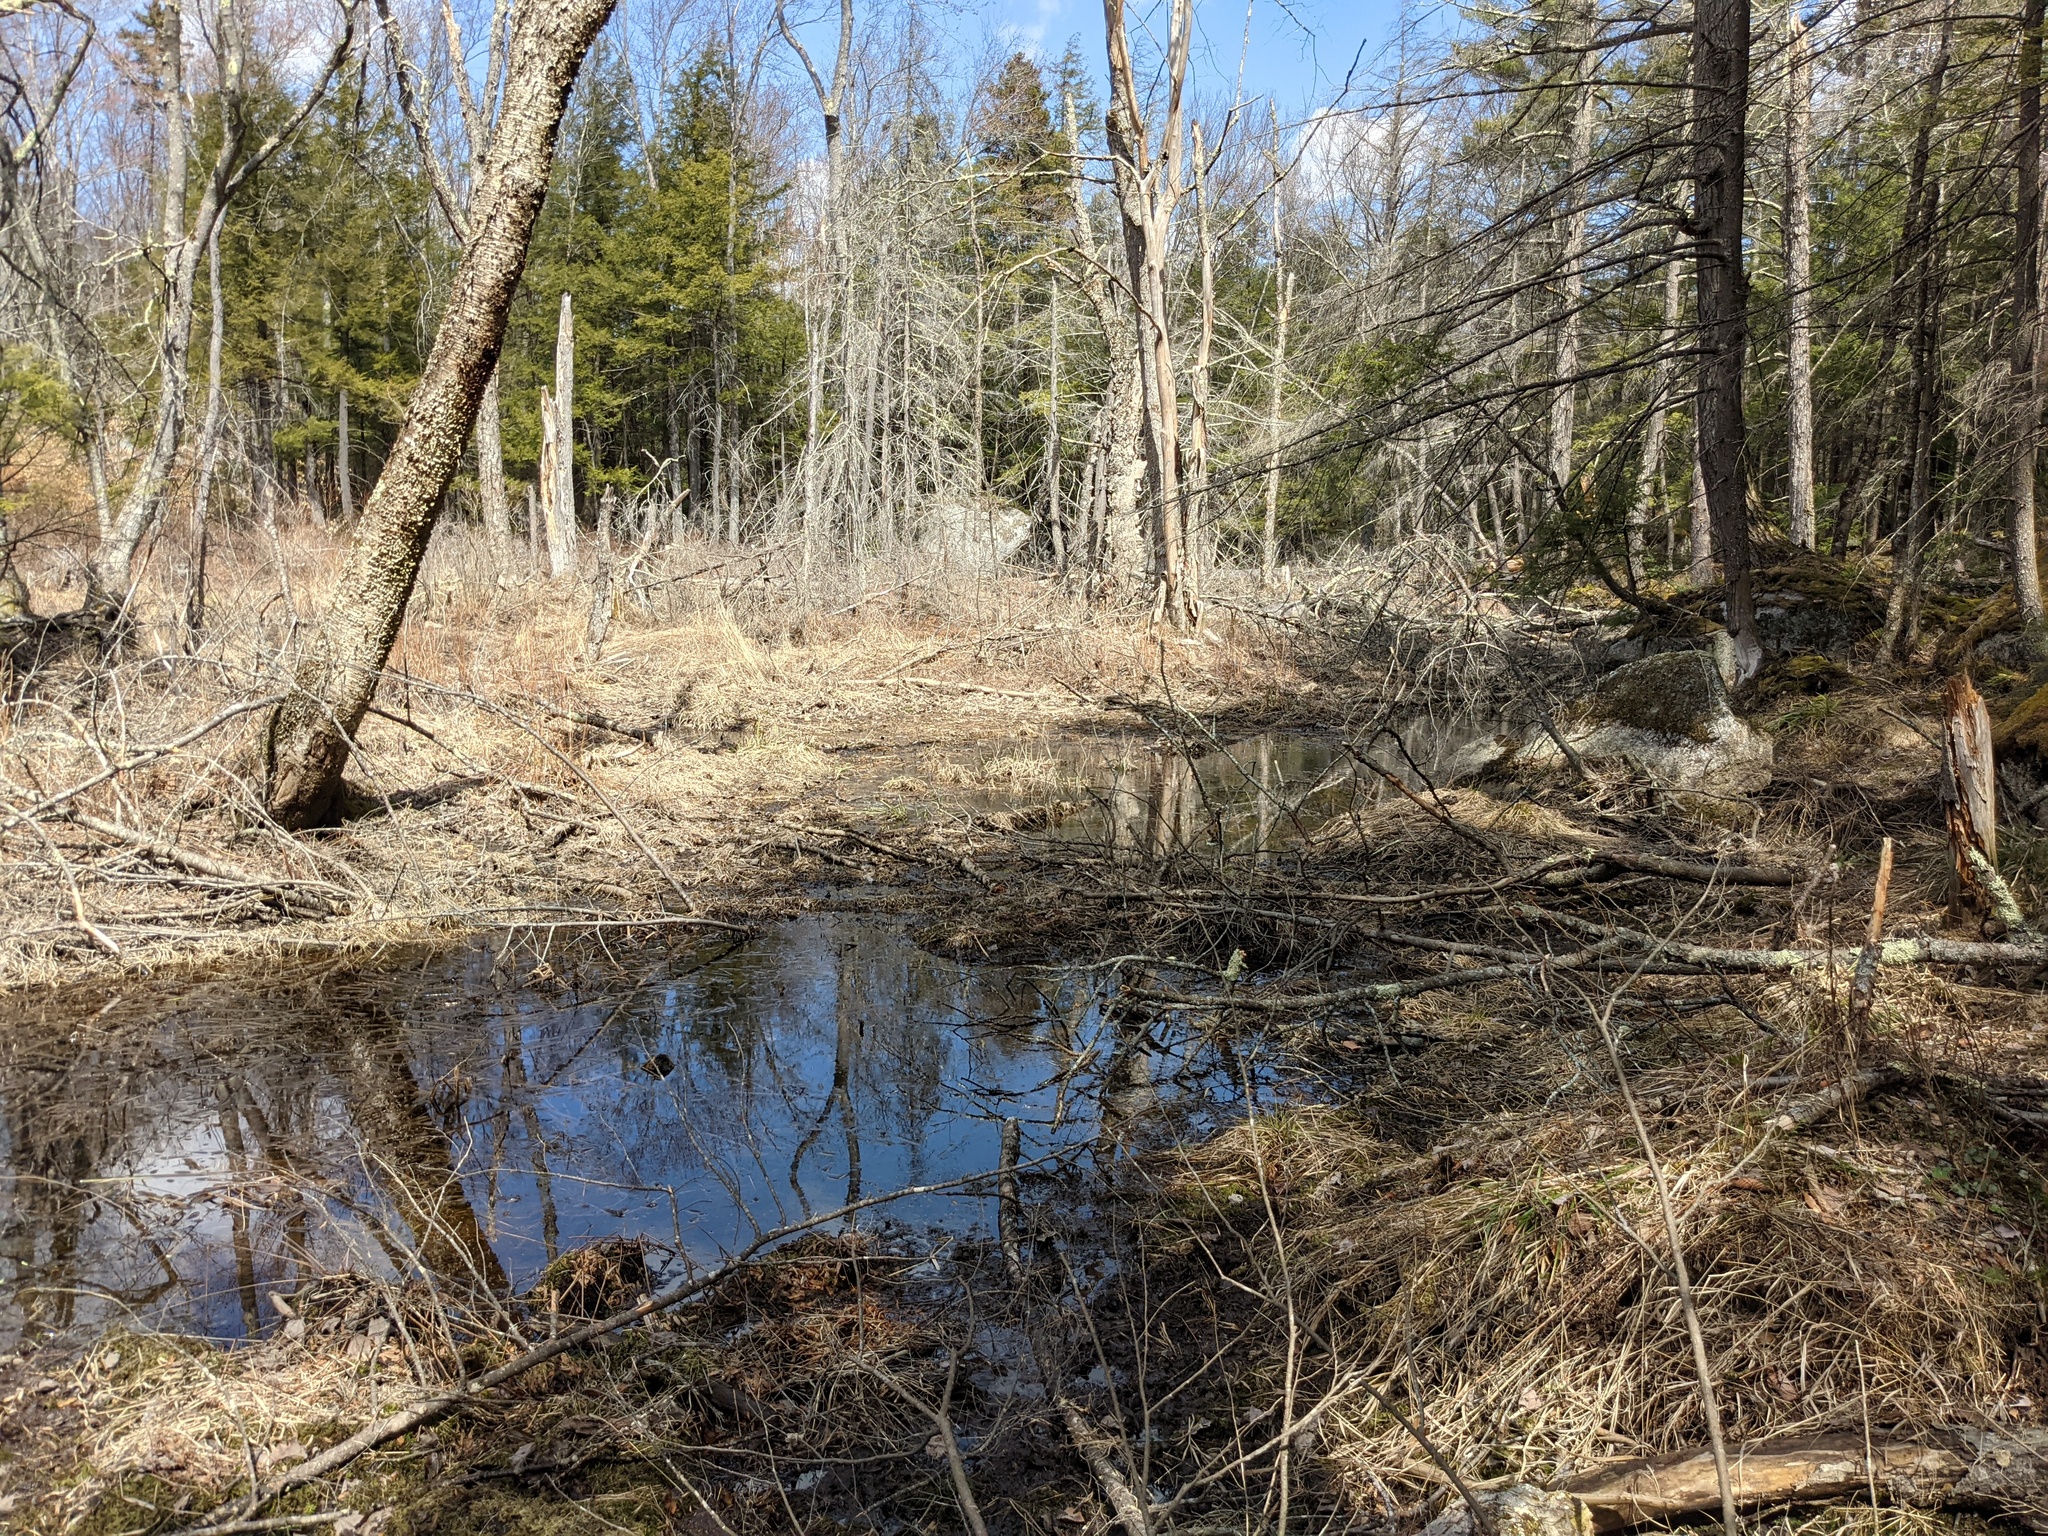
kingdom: Animalia
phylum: Chordata
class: Amphibia
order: Anura
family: Ranidae
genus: Lithobates
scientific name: Lithobates sylvaticus
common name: Wood frog
